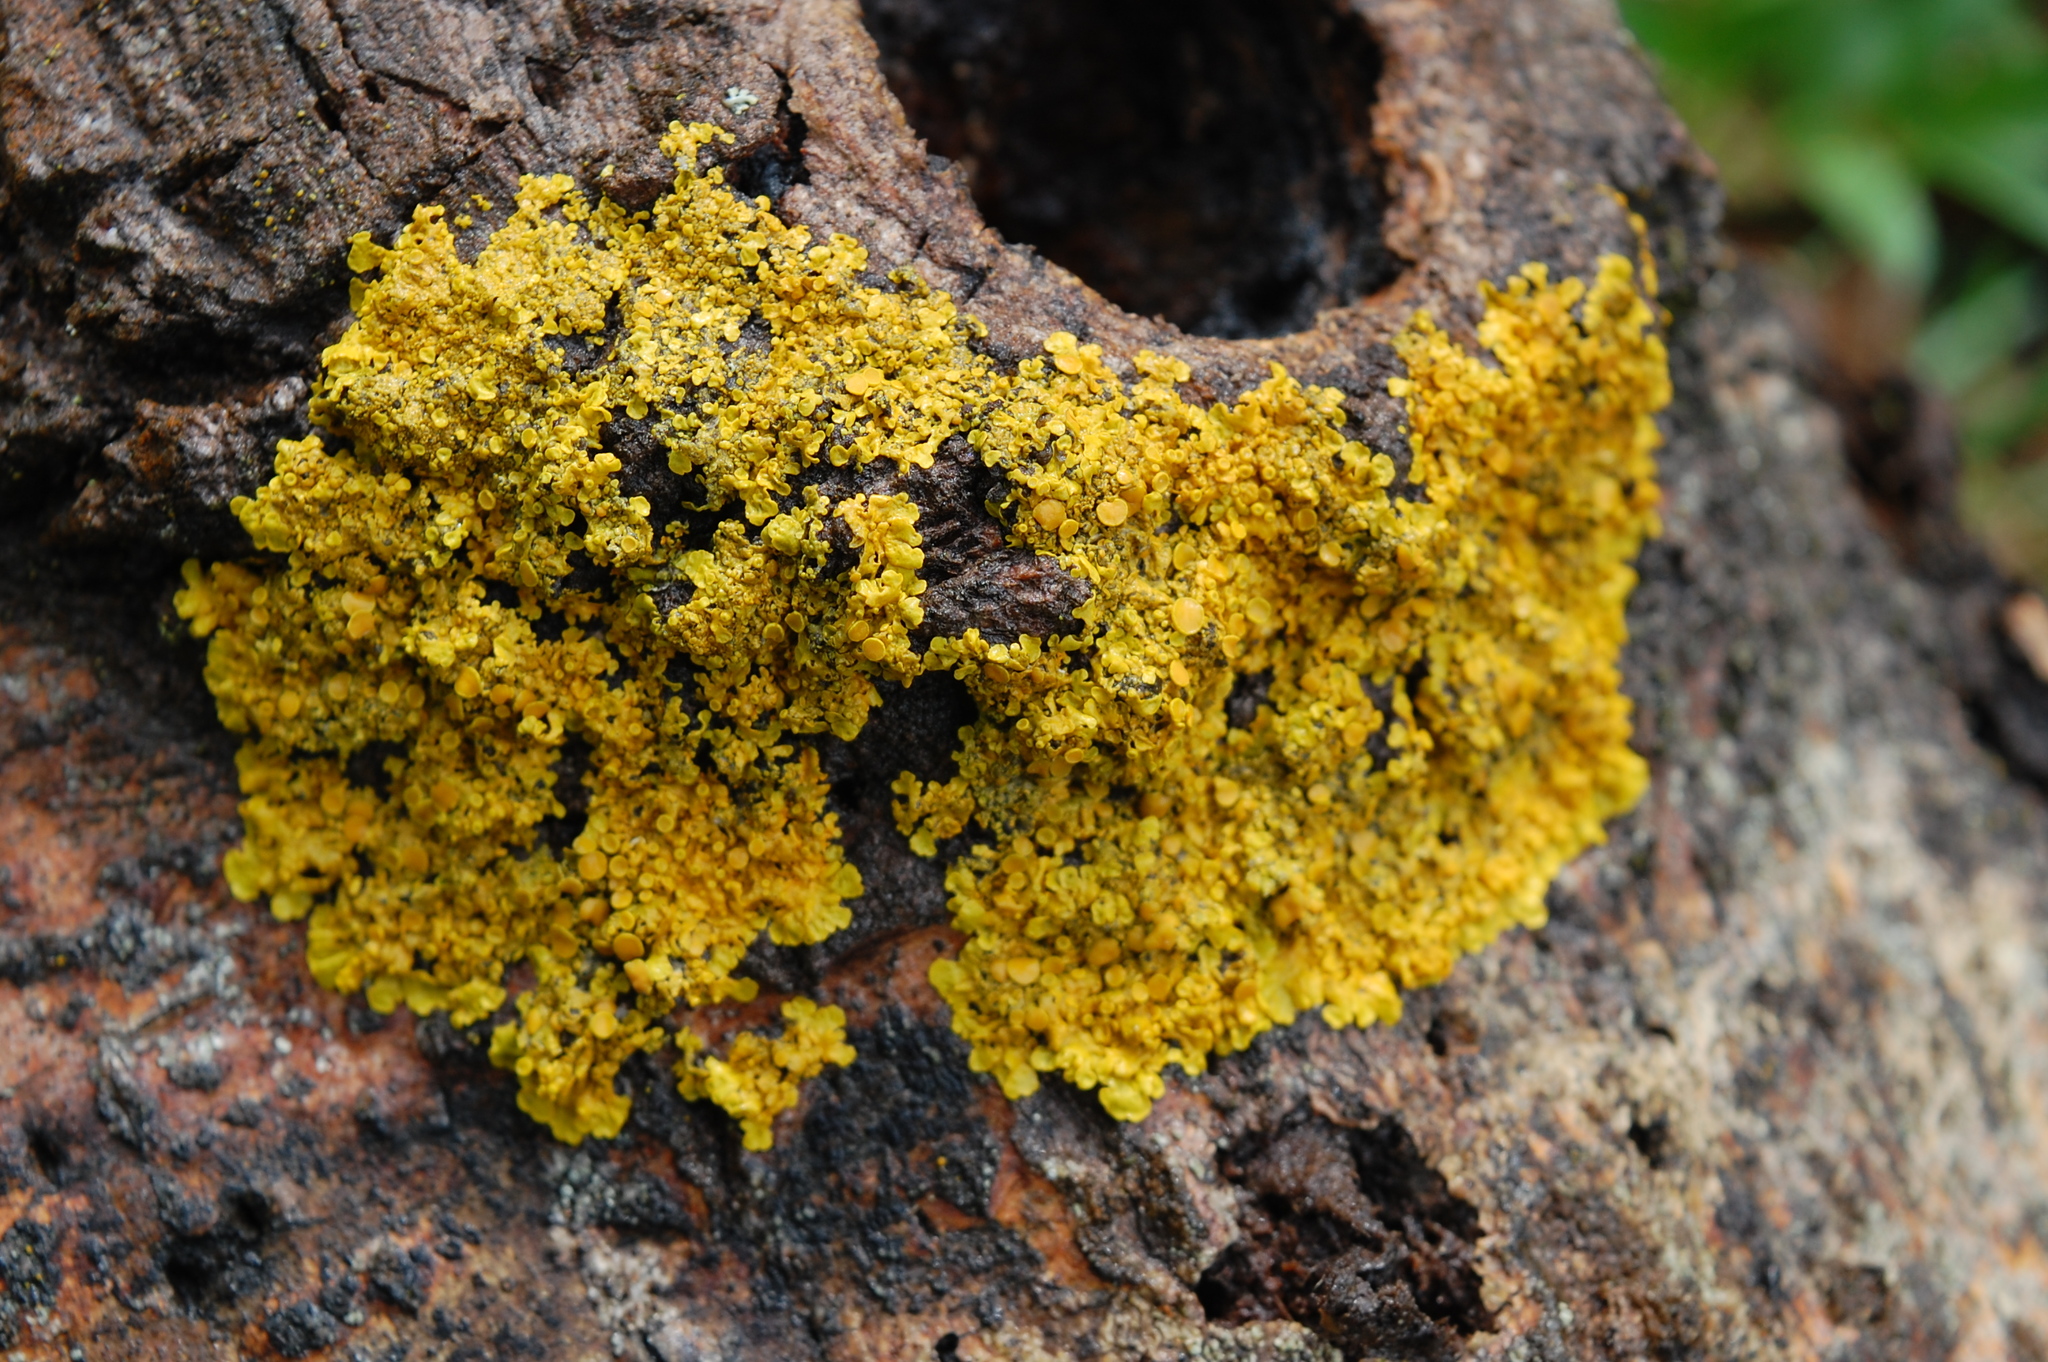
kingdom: Fungi
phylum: Ascomycota
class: Lecanoromycetes
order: Teloschistales
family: Teloschistaceae
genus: Xanthoria
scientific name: Xanthoria parietina
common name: Common orange lichen
